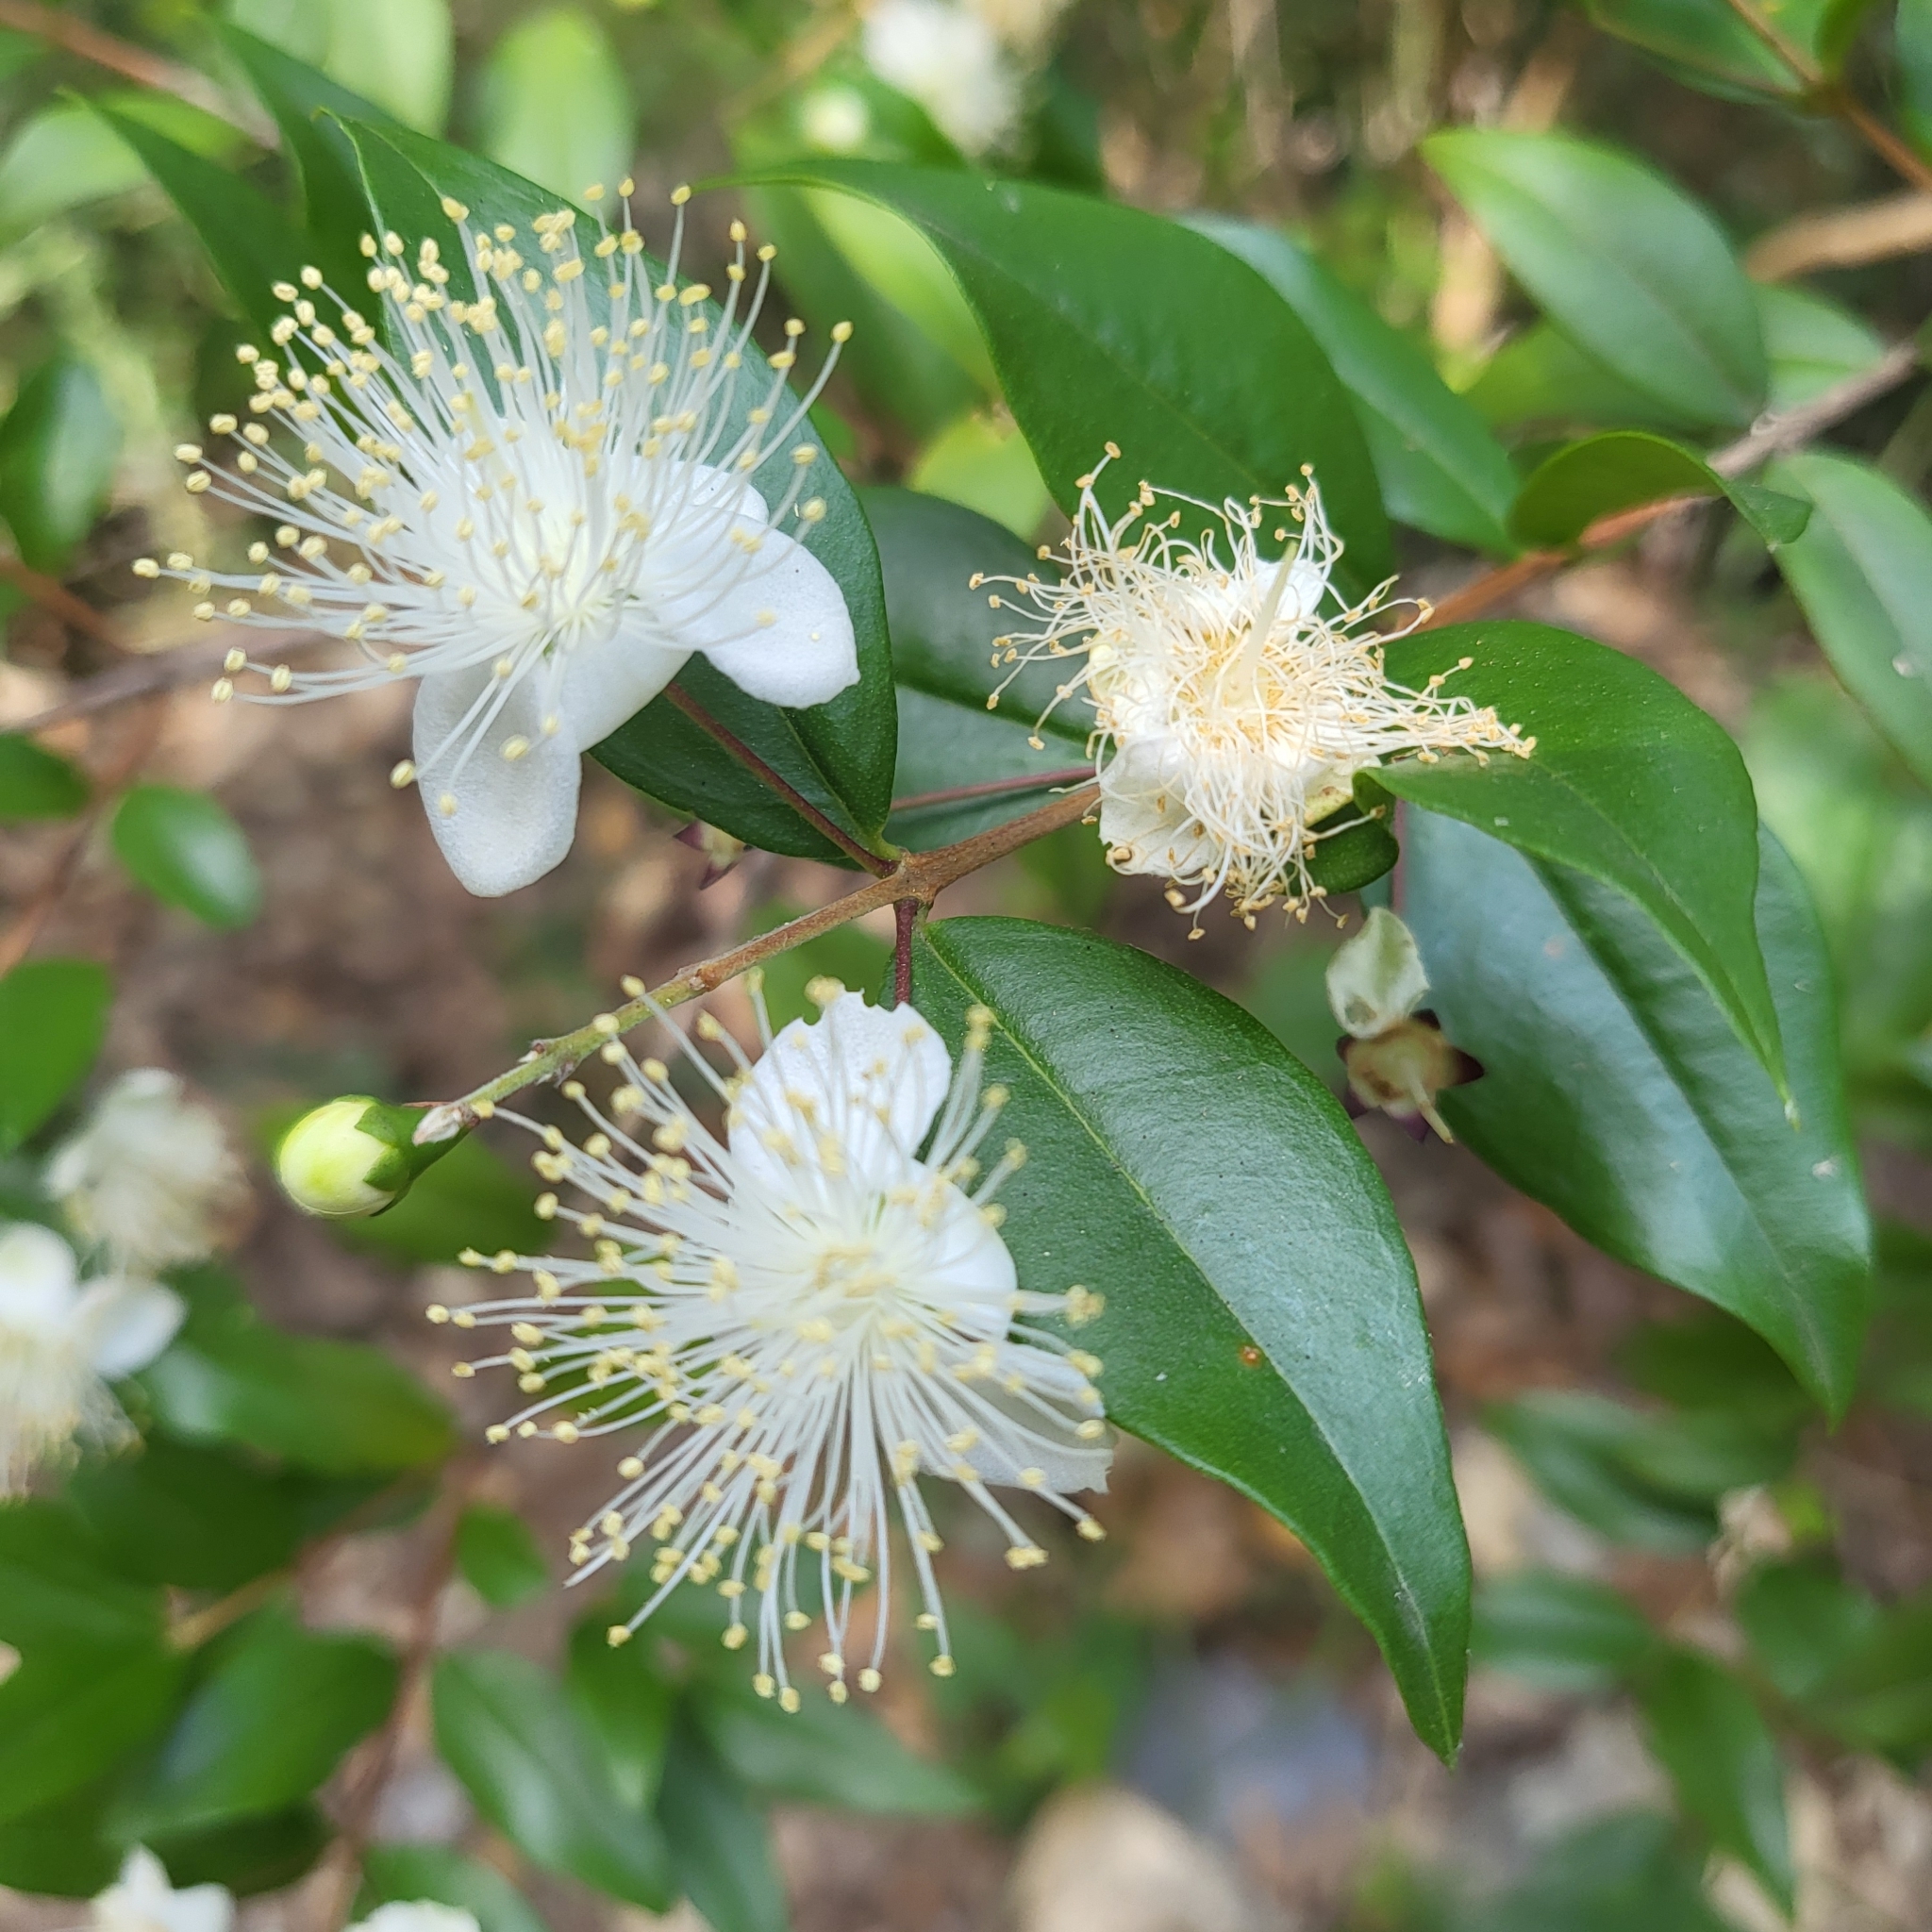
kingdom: Plantae
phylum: Tracheophyta
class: Magnoliopsida
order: Myrtales
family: Myrtaceae
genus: Myrtus
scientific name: Myrtus communis
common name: Myrtle
